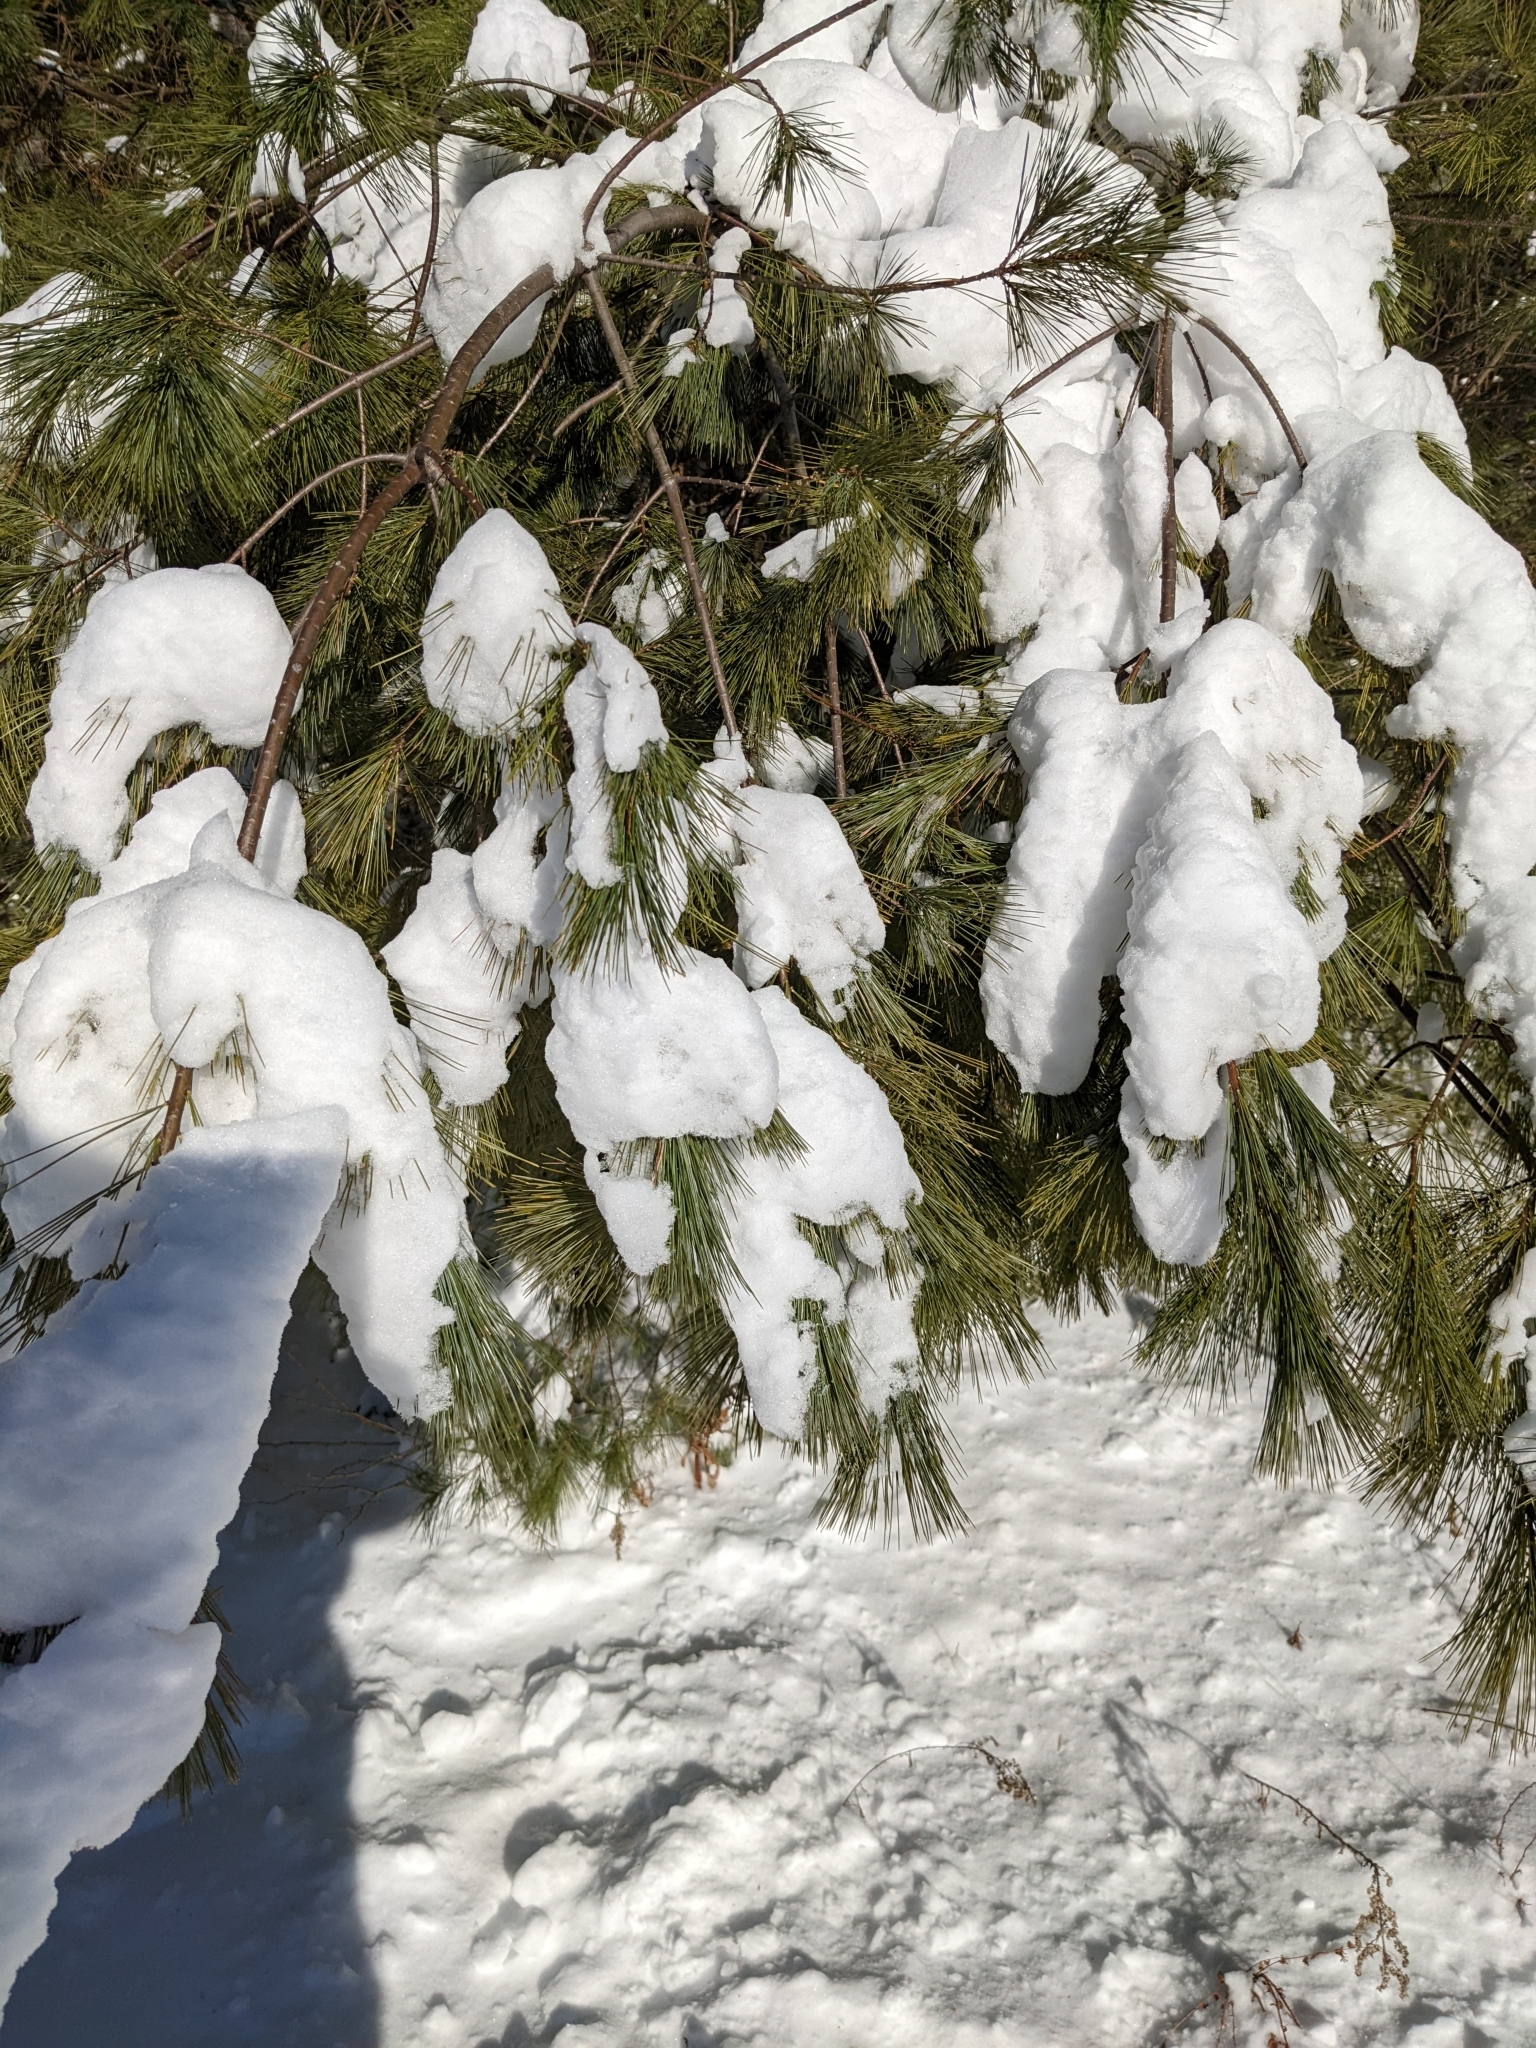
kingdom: Plantae
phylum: Tracheophyta
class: Pinopsida
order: Pinales
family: Pinaceae
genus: Pinus
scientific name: Pinus strobus
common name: Weymouth pine
